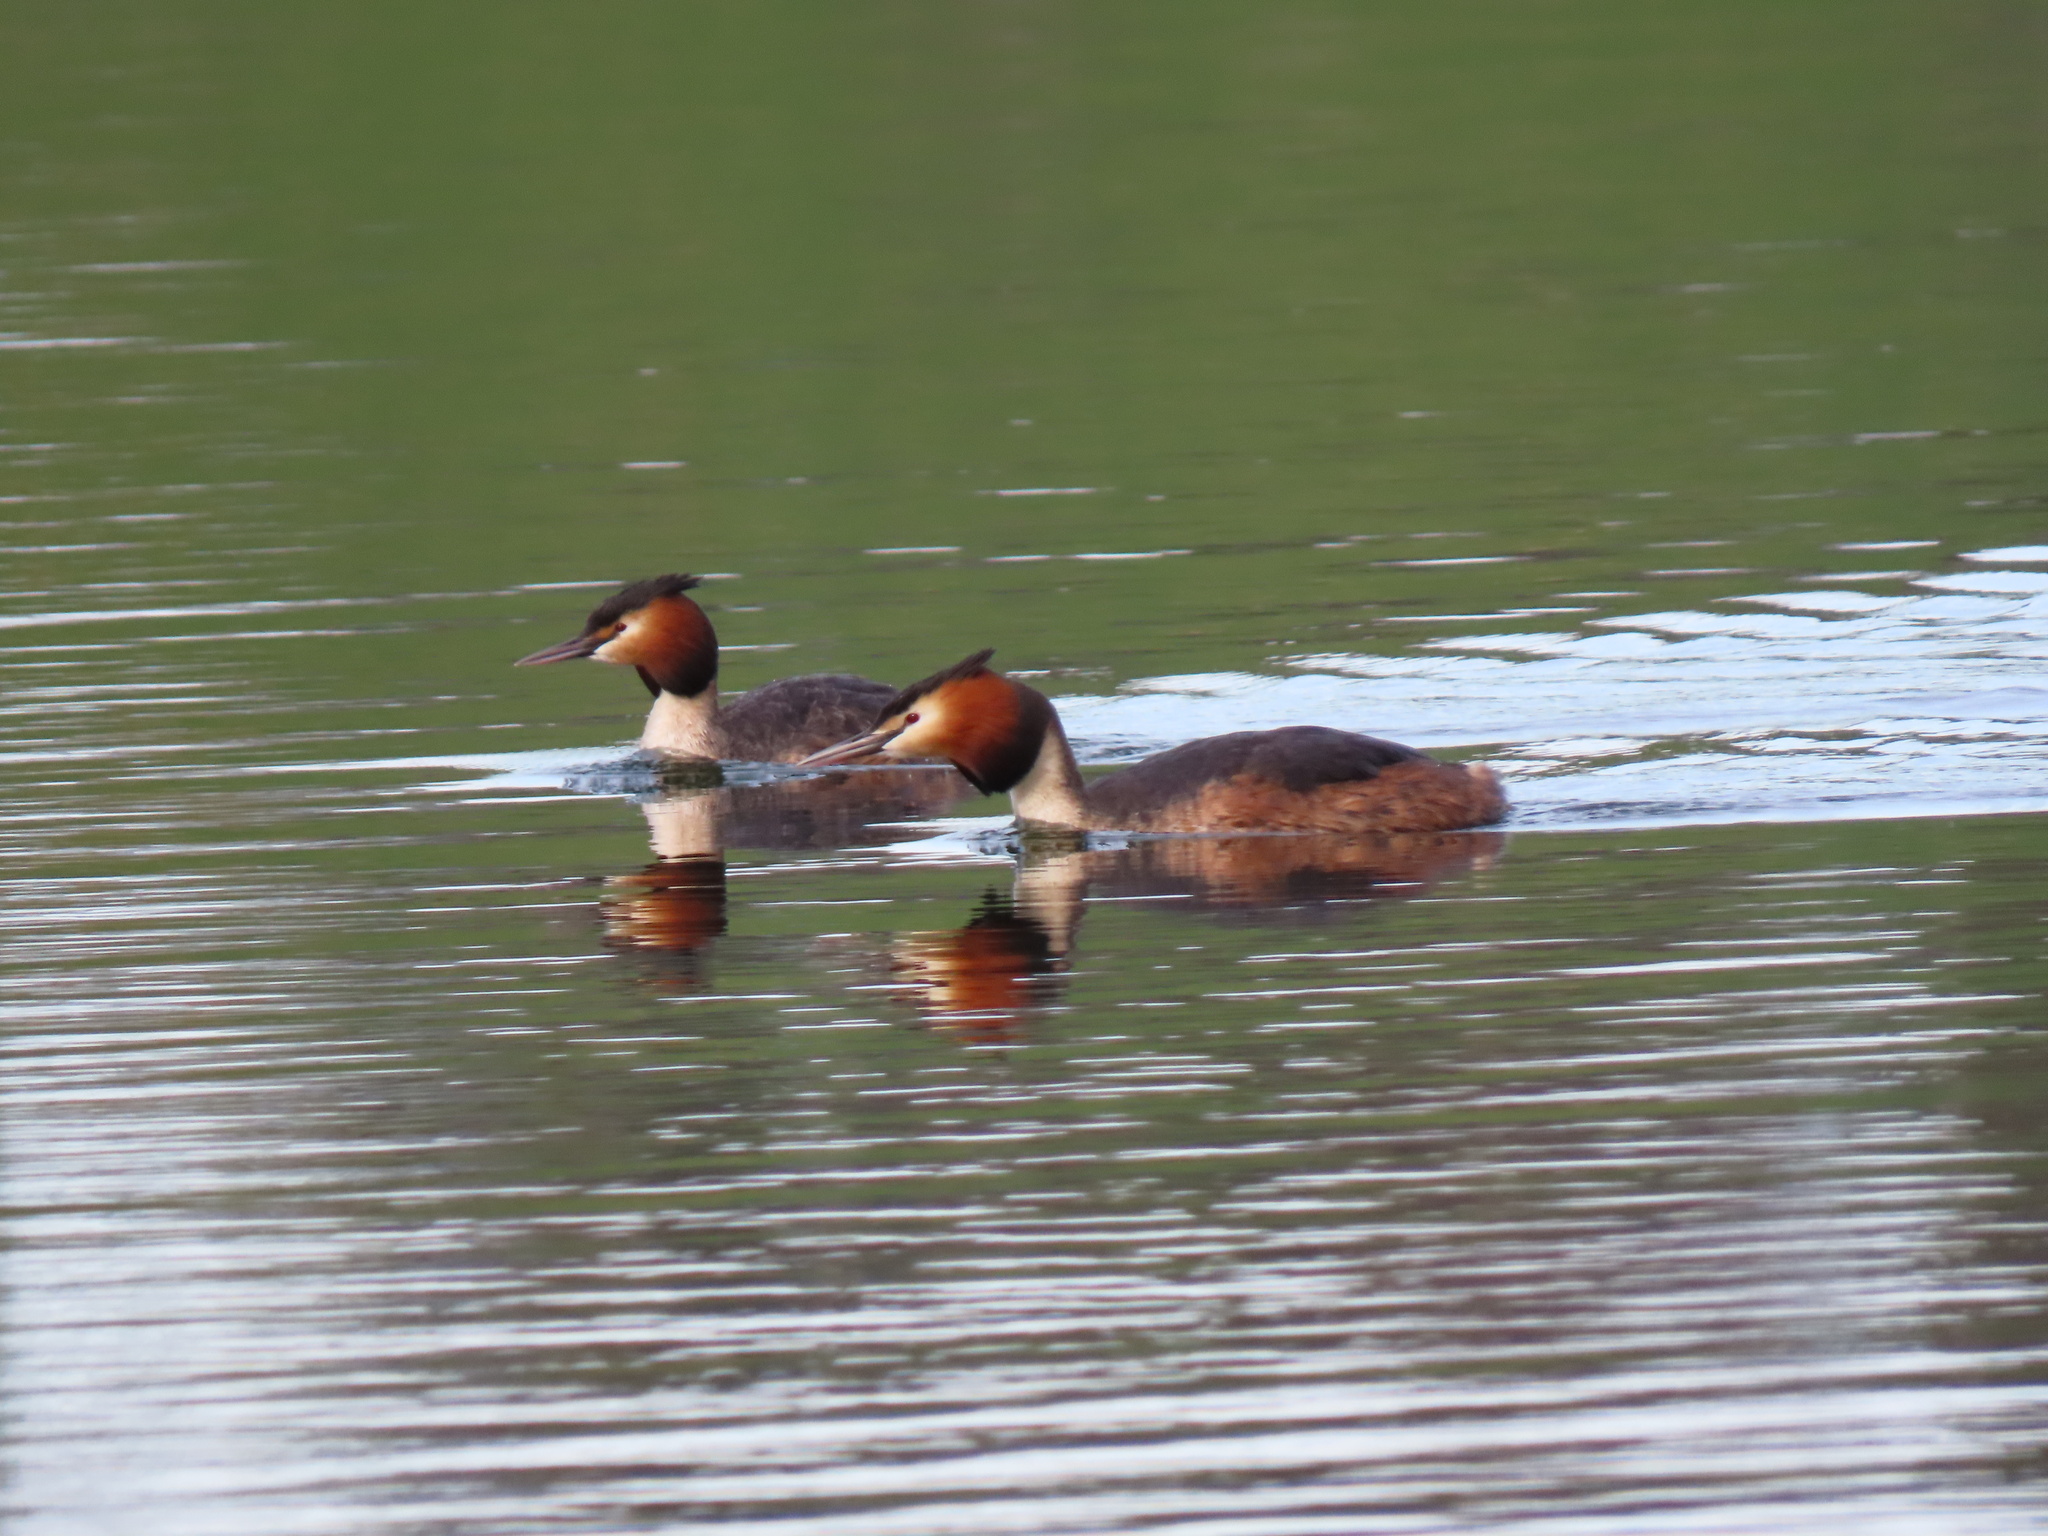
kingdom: Animalia
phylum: Chordata
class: Aves
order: Podicipediformes
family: Podicipedidae
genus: Podiceps
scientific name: Podiceps cristatus
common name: Great crested grebe
